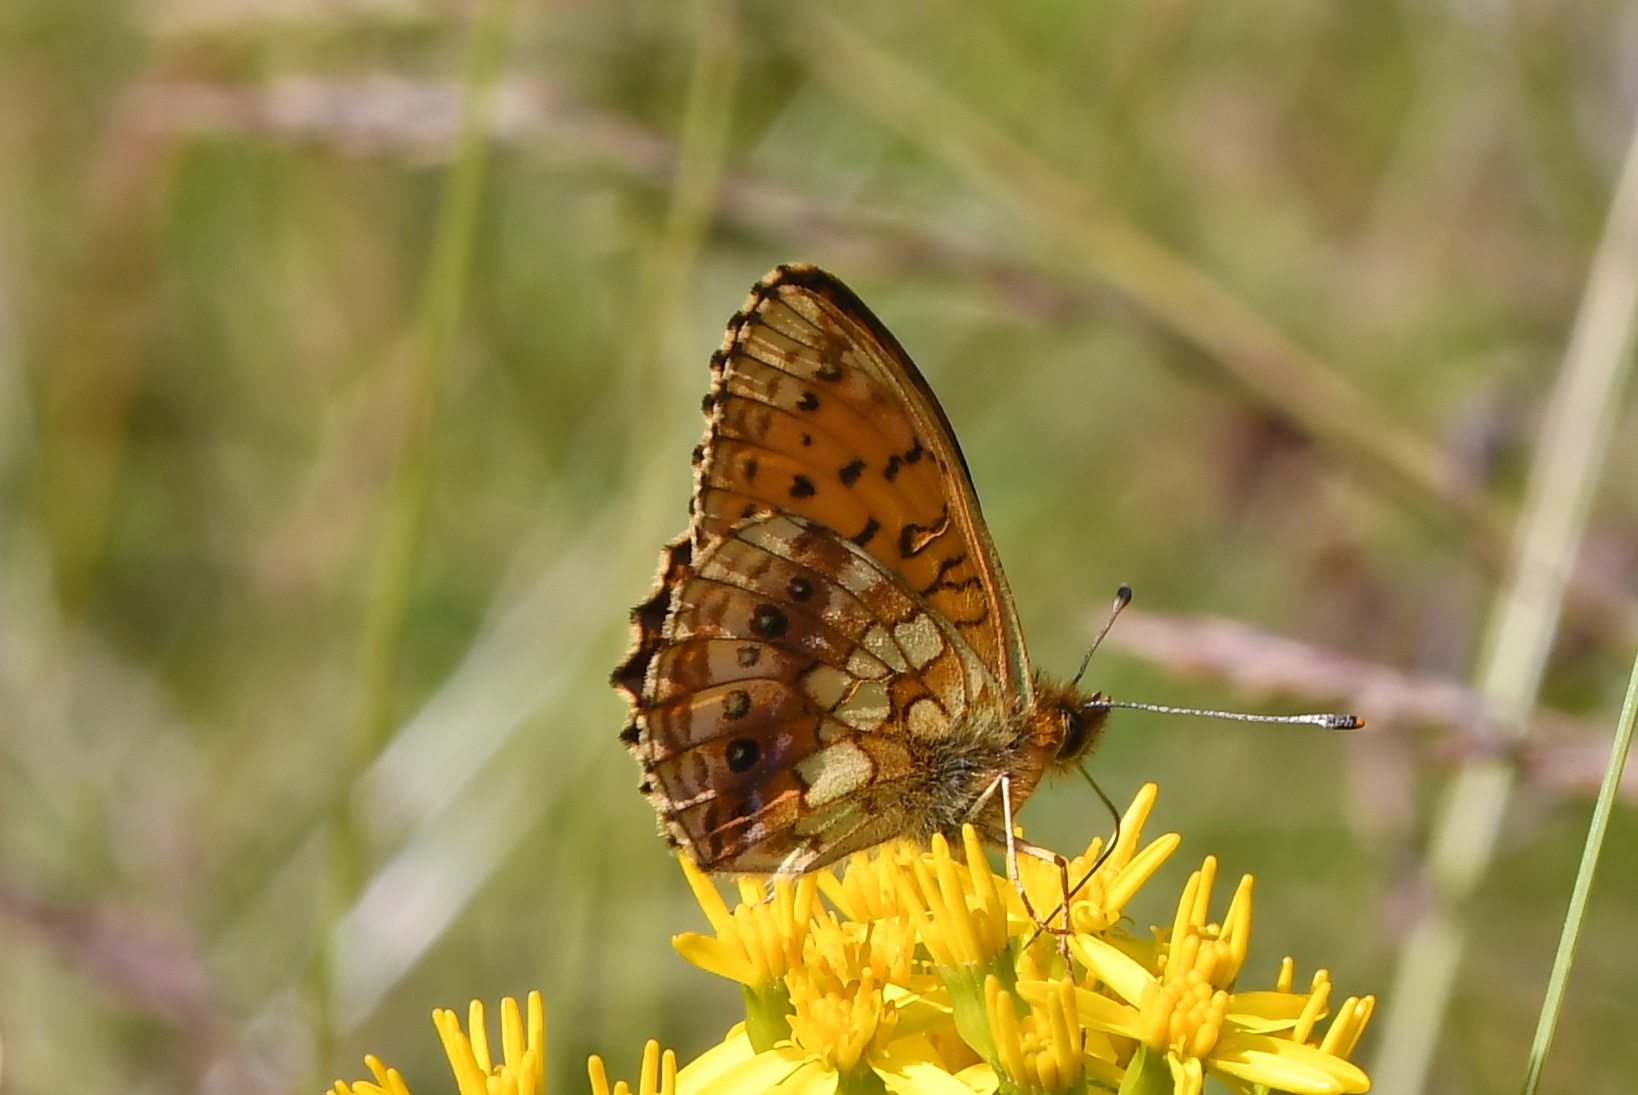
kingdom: Animalia
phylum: Arthropoda
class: Insecta
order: Lepidoptera
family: Nymphalidae
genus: Brenthis
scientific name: Brenthis ino
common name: Lesser marbled fritillary
